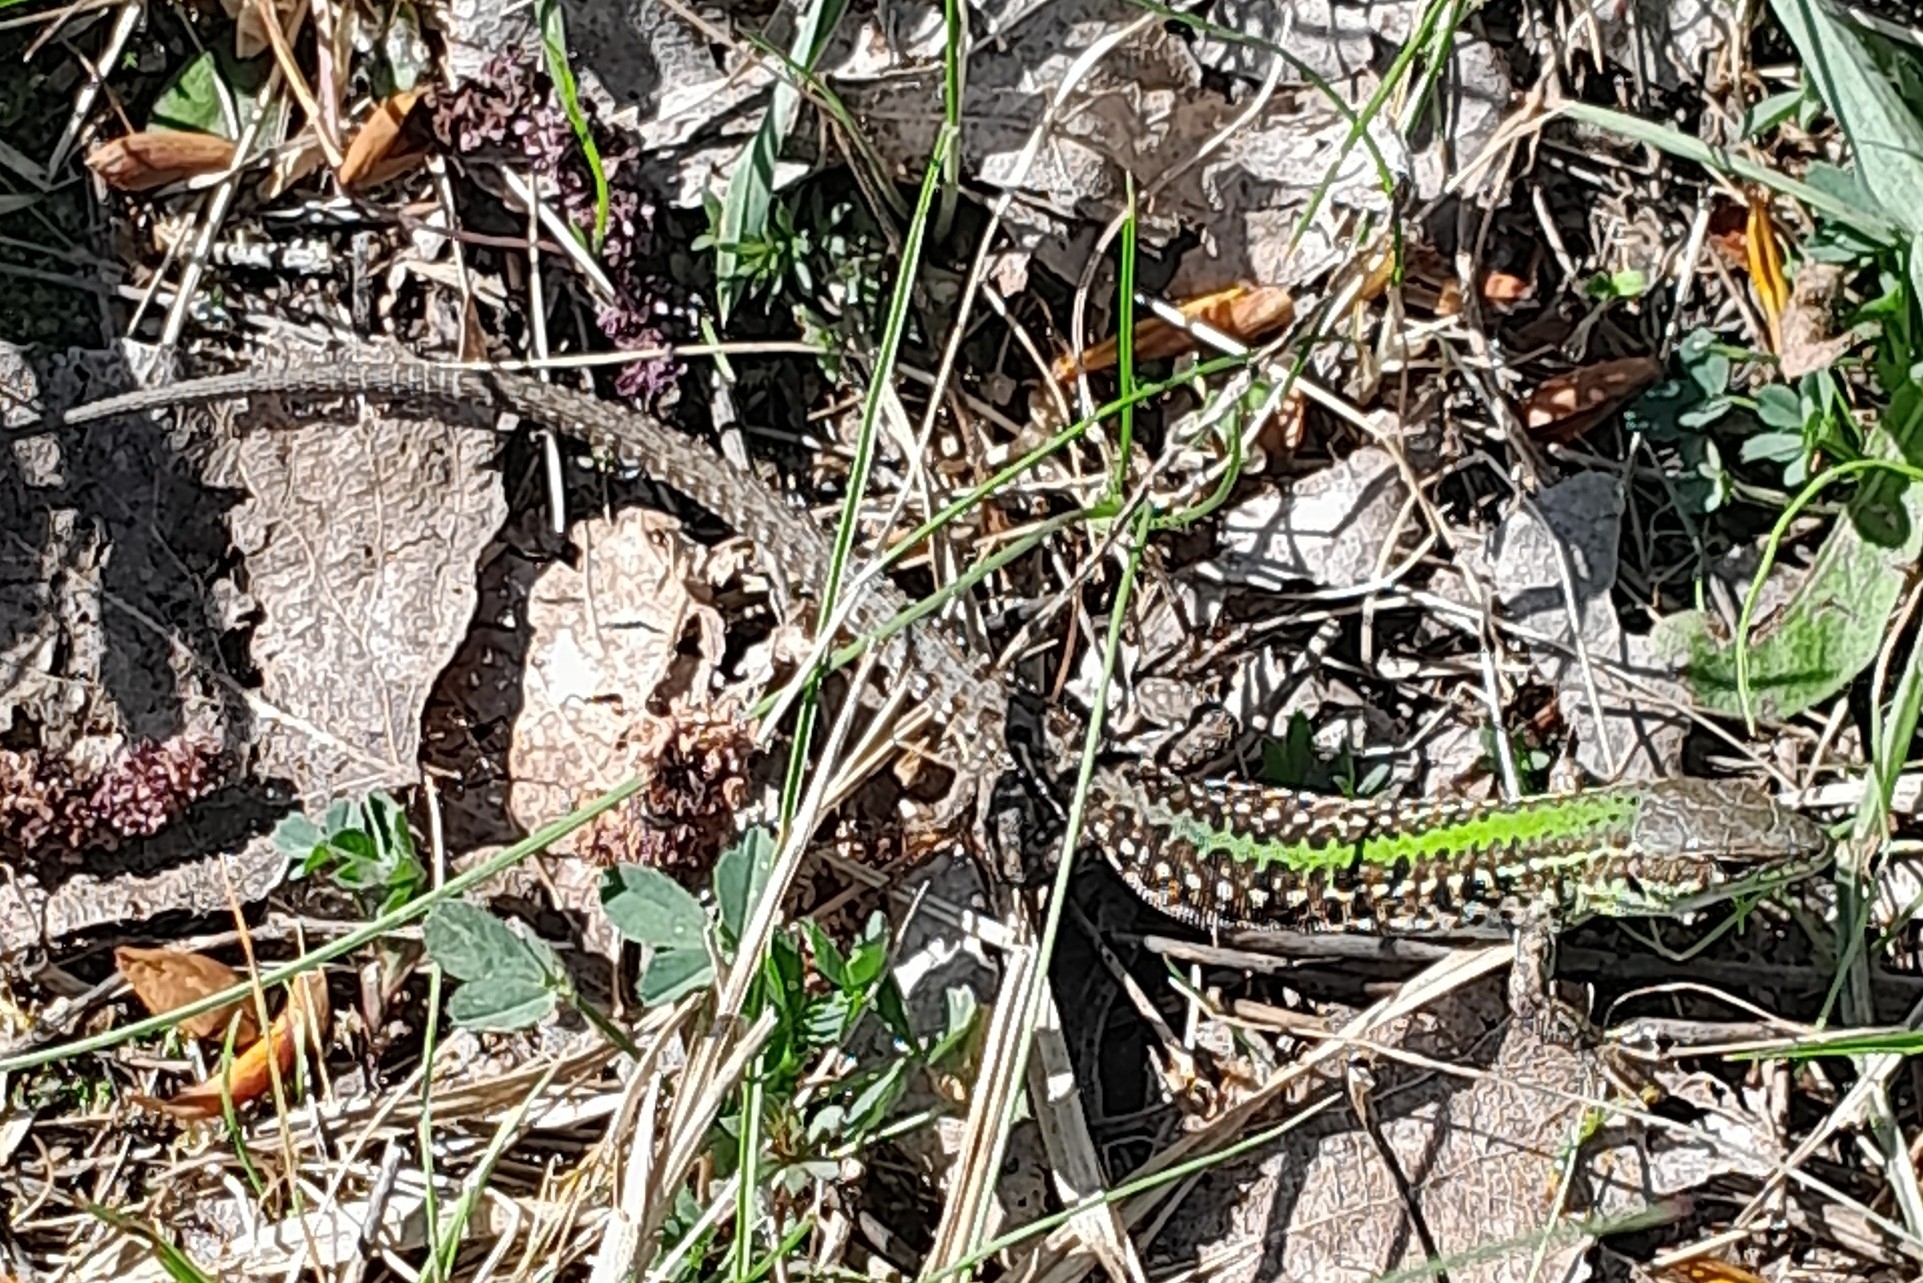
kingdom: Animalia
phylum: Chordata
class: Squamata
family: Lacertidae
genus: Podarcis
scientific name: Podarcis tauricus
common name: Balkan wall lizard
